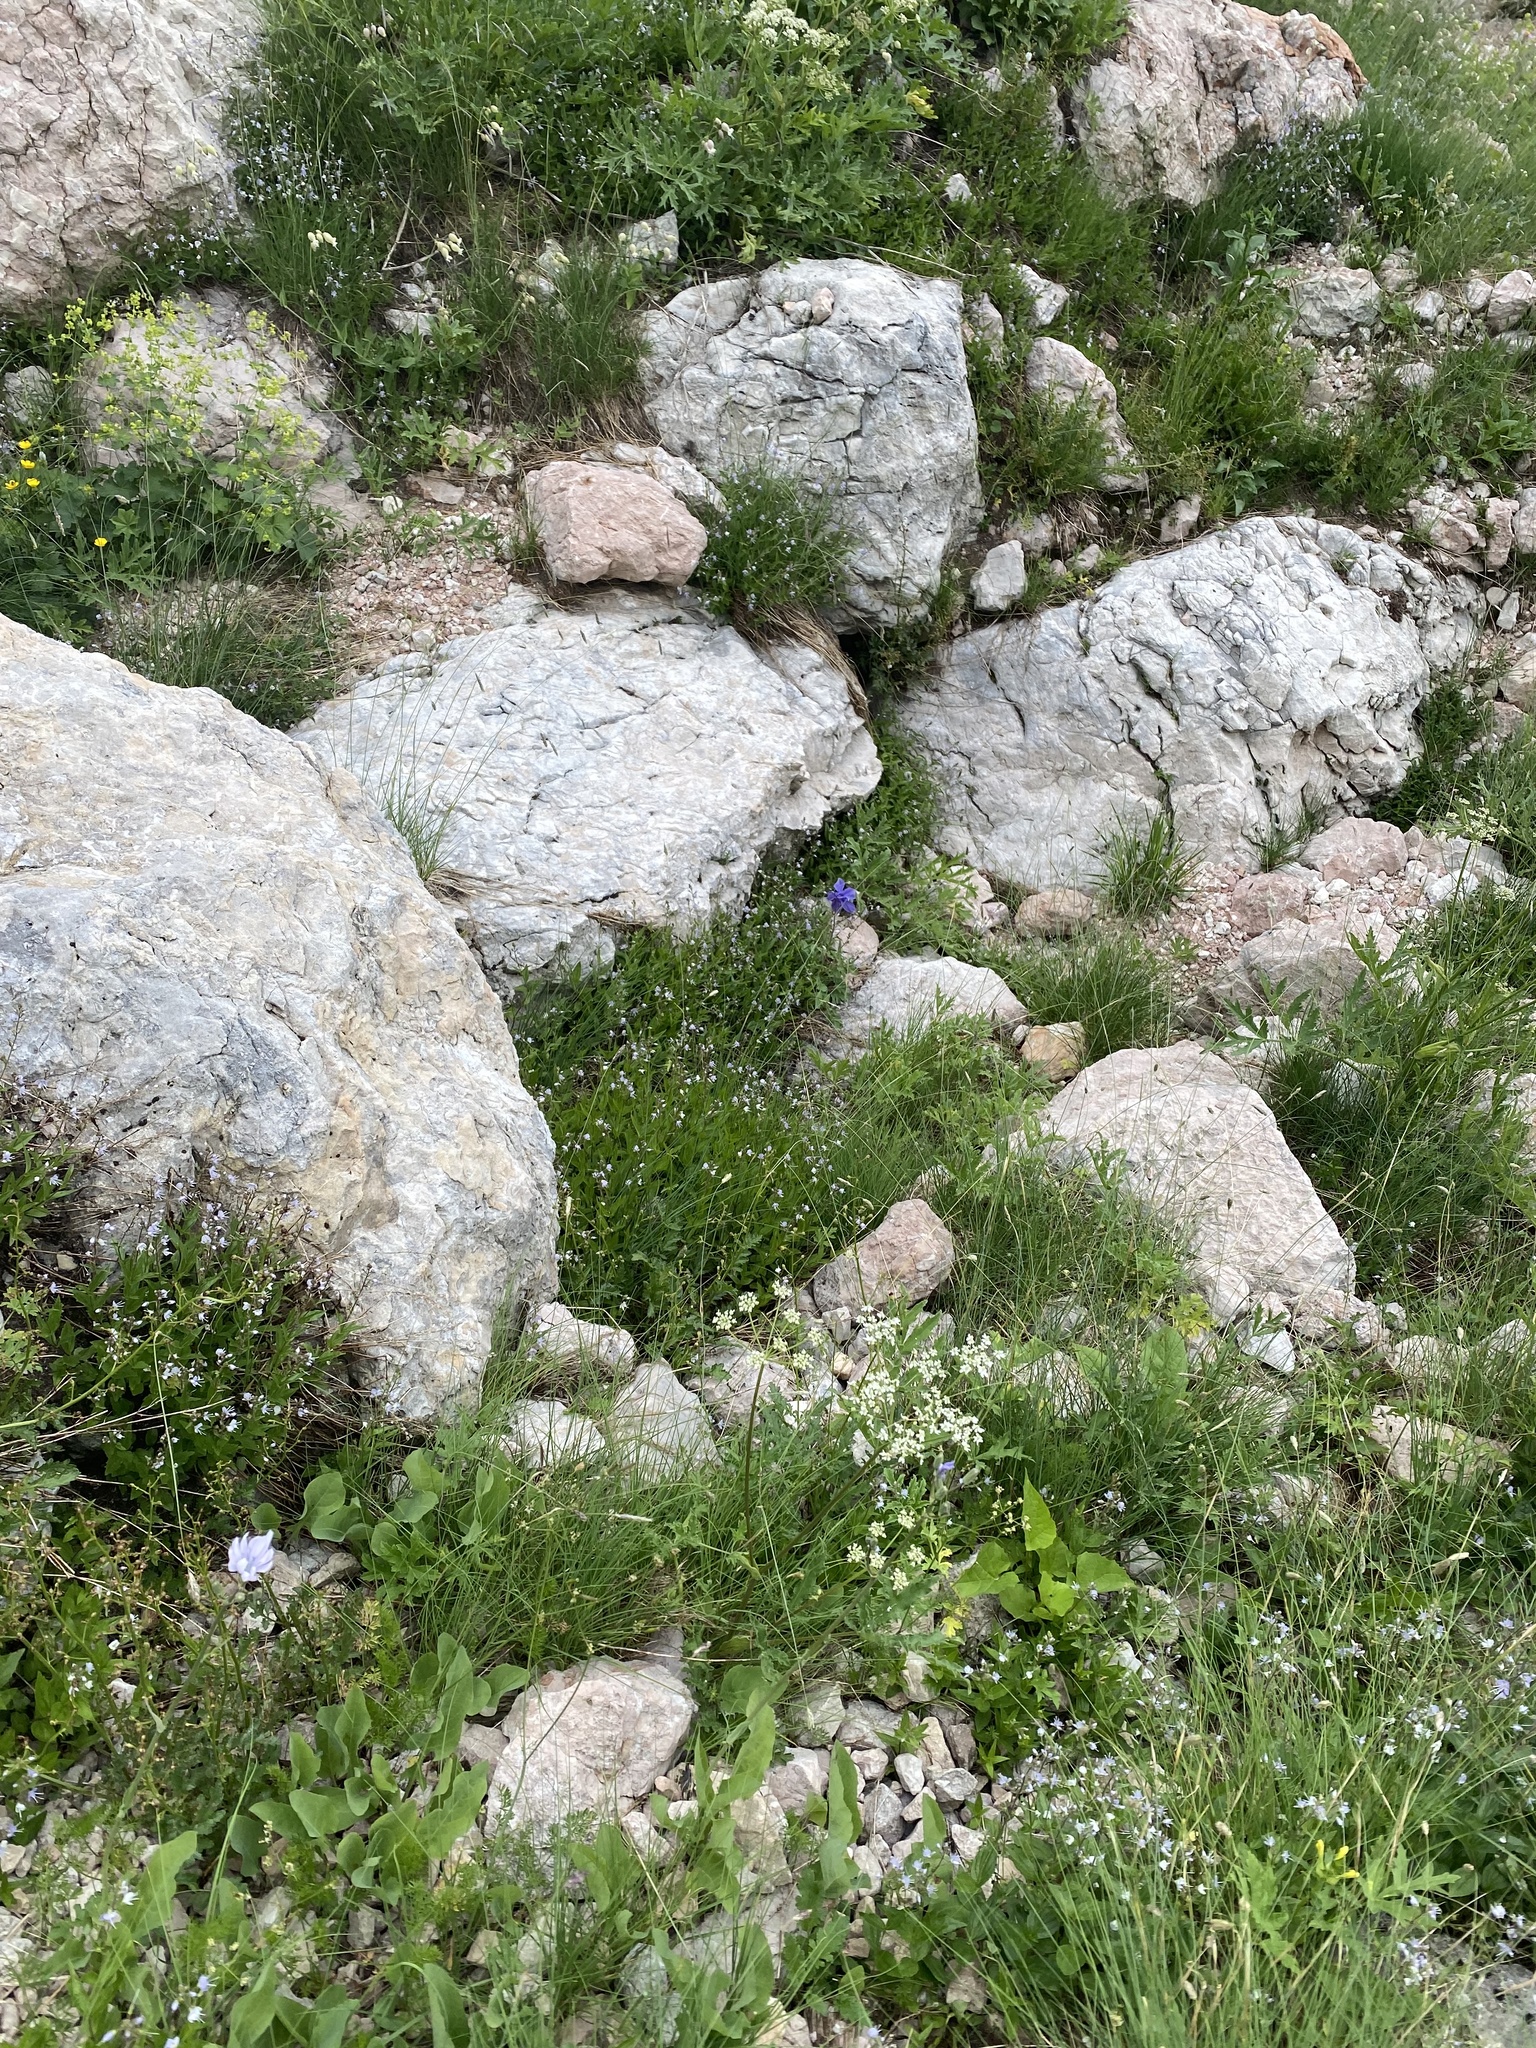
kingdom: Plantae
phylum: Tracheophyta
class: Magnoliopsida
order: Ranunculales
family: Ranunculaceae
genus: Aquilegia
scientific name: Aquilegia olympica
